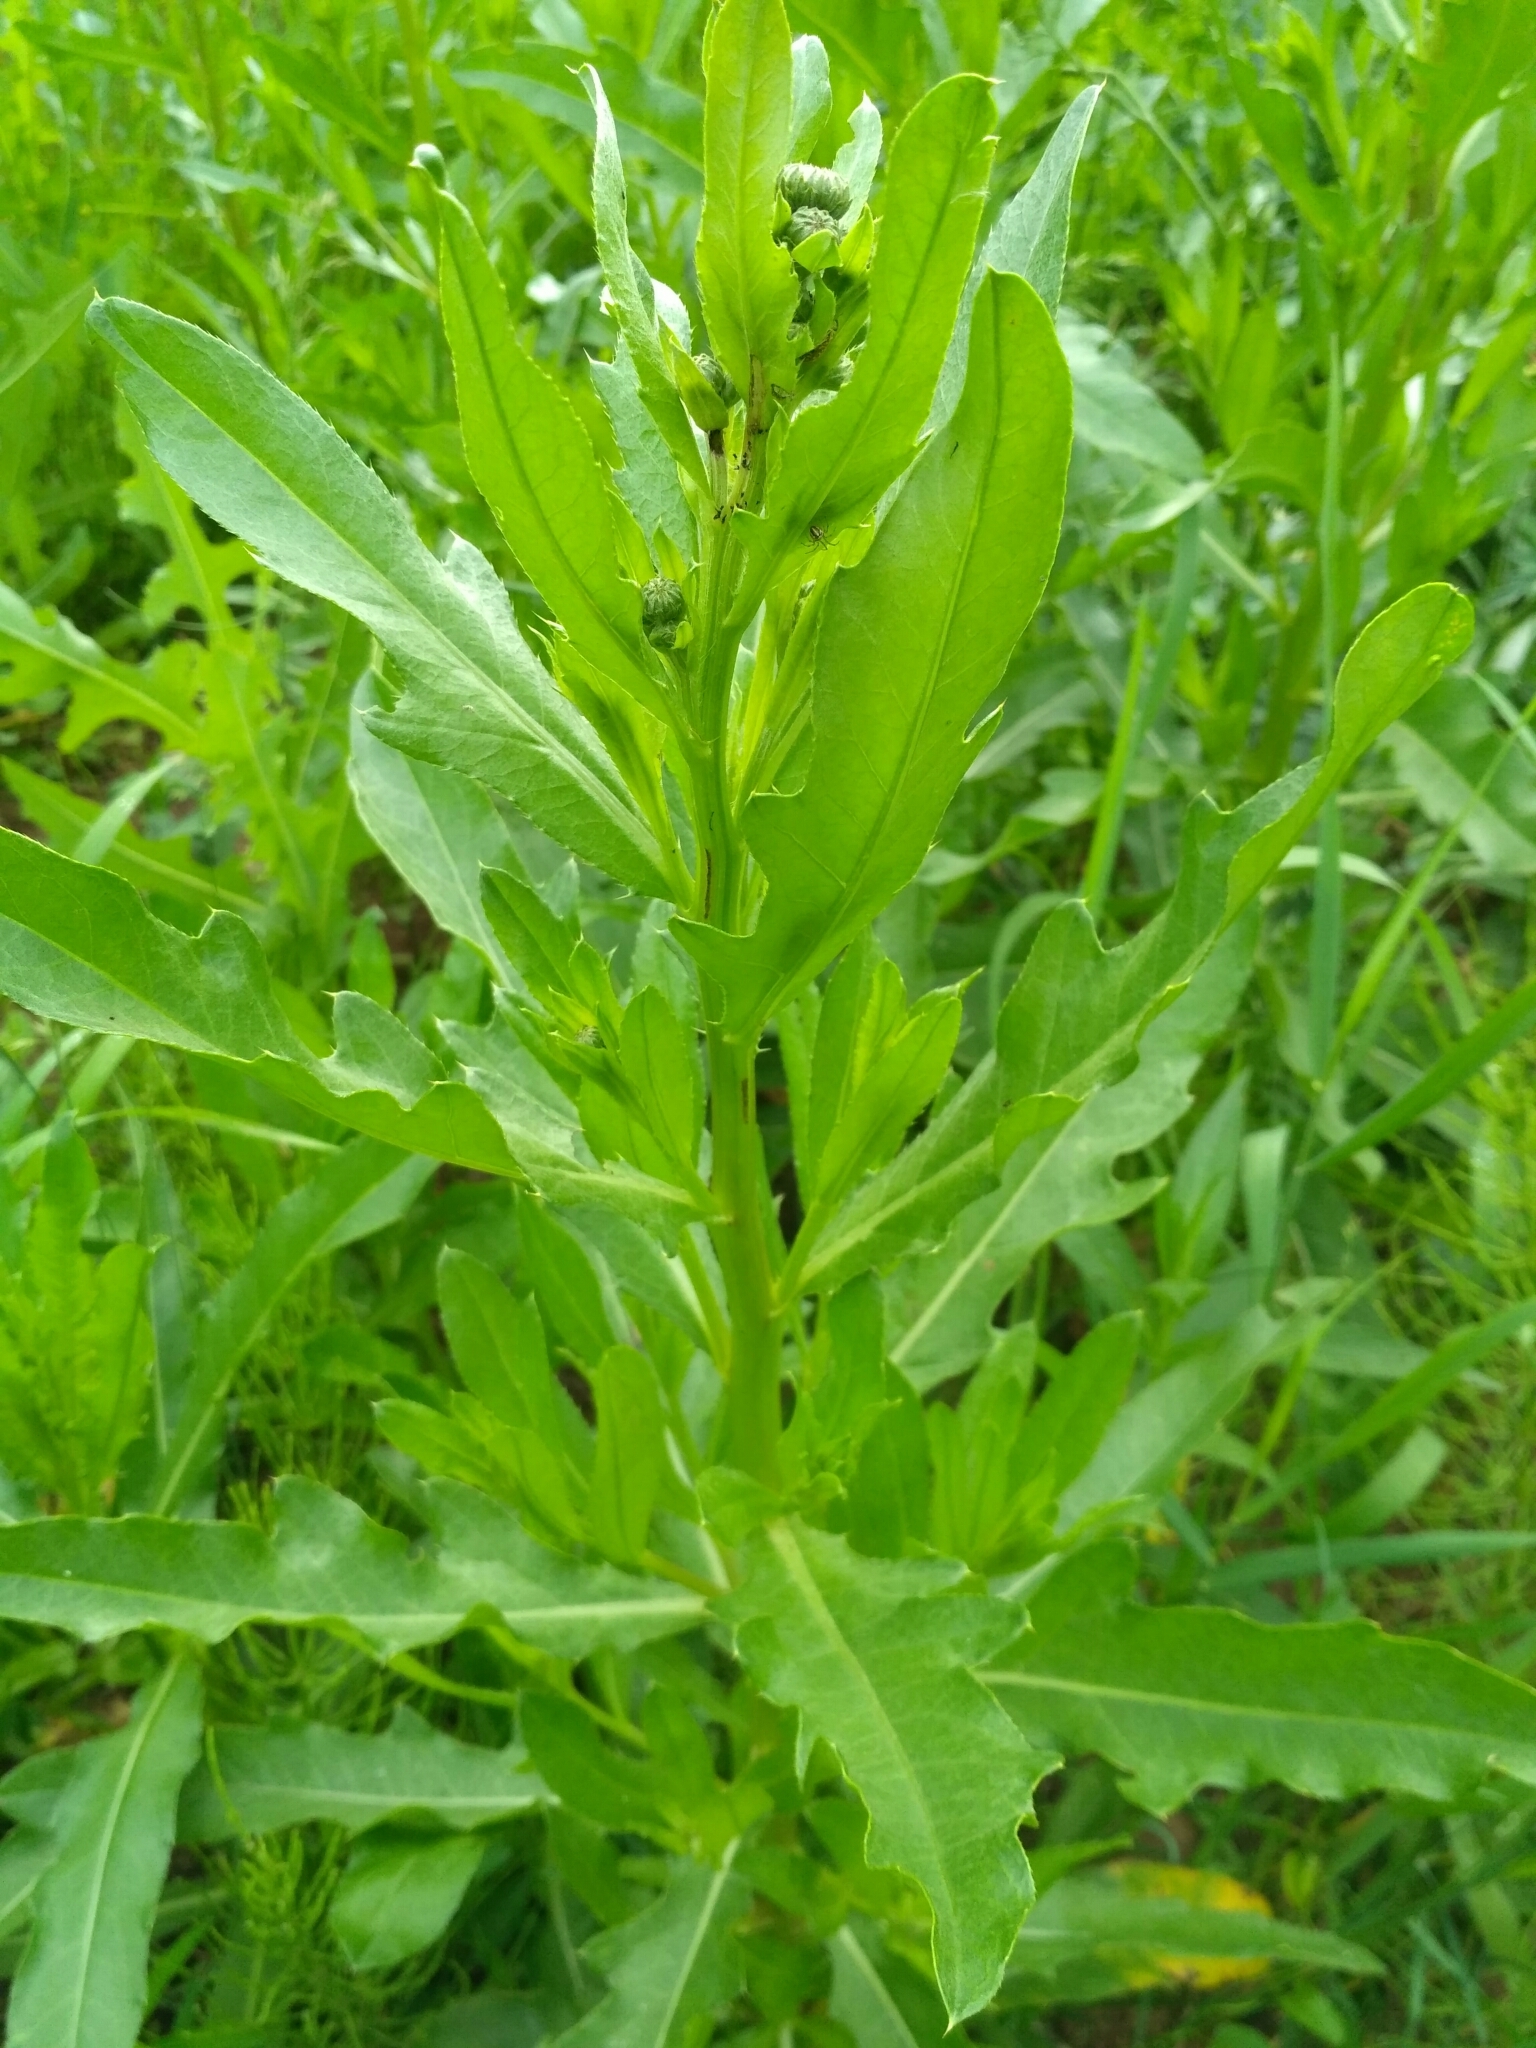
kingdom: Plantae
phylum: Tracheophyta
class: Magnoliopsida
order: Asterales
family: Asteraceae
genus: Cirsium
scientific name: Cirsium arvense
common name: Creeping thistle
